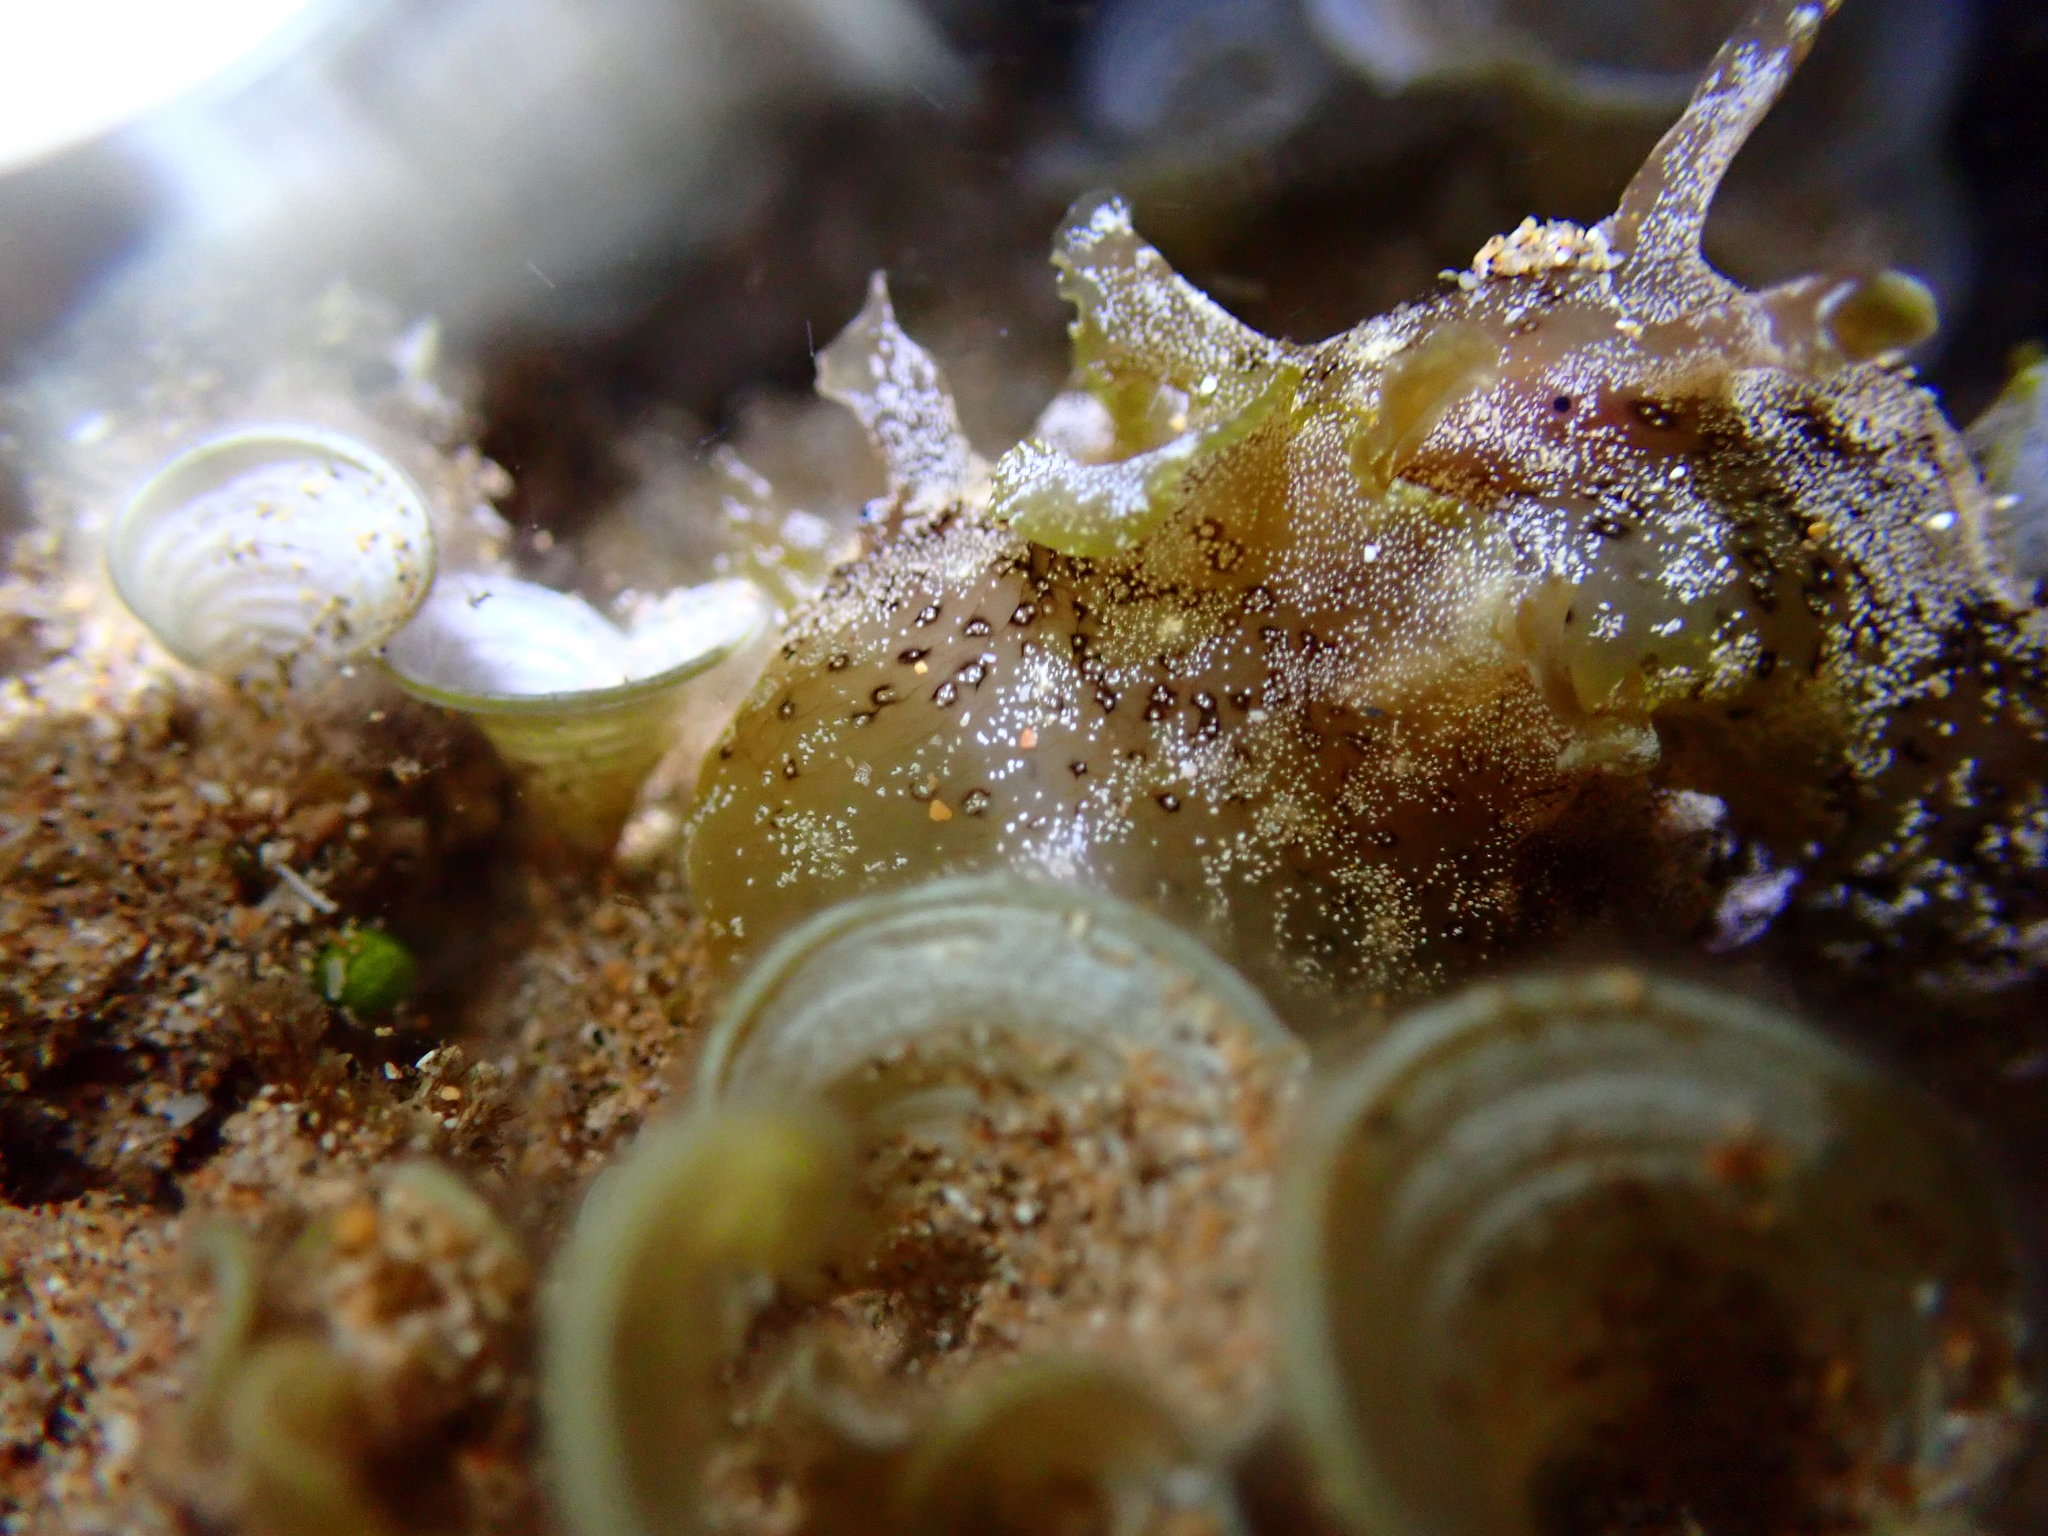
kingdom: Animalia
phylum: Mollusca
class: Gastropoda
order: Aplysiida
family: Aplysiidae
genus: Aplysia
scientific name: Aplysia oculifera
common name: Spotted sea hare
